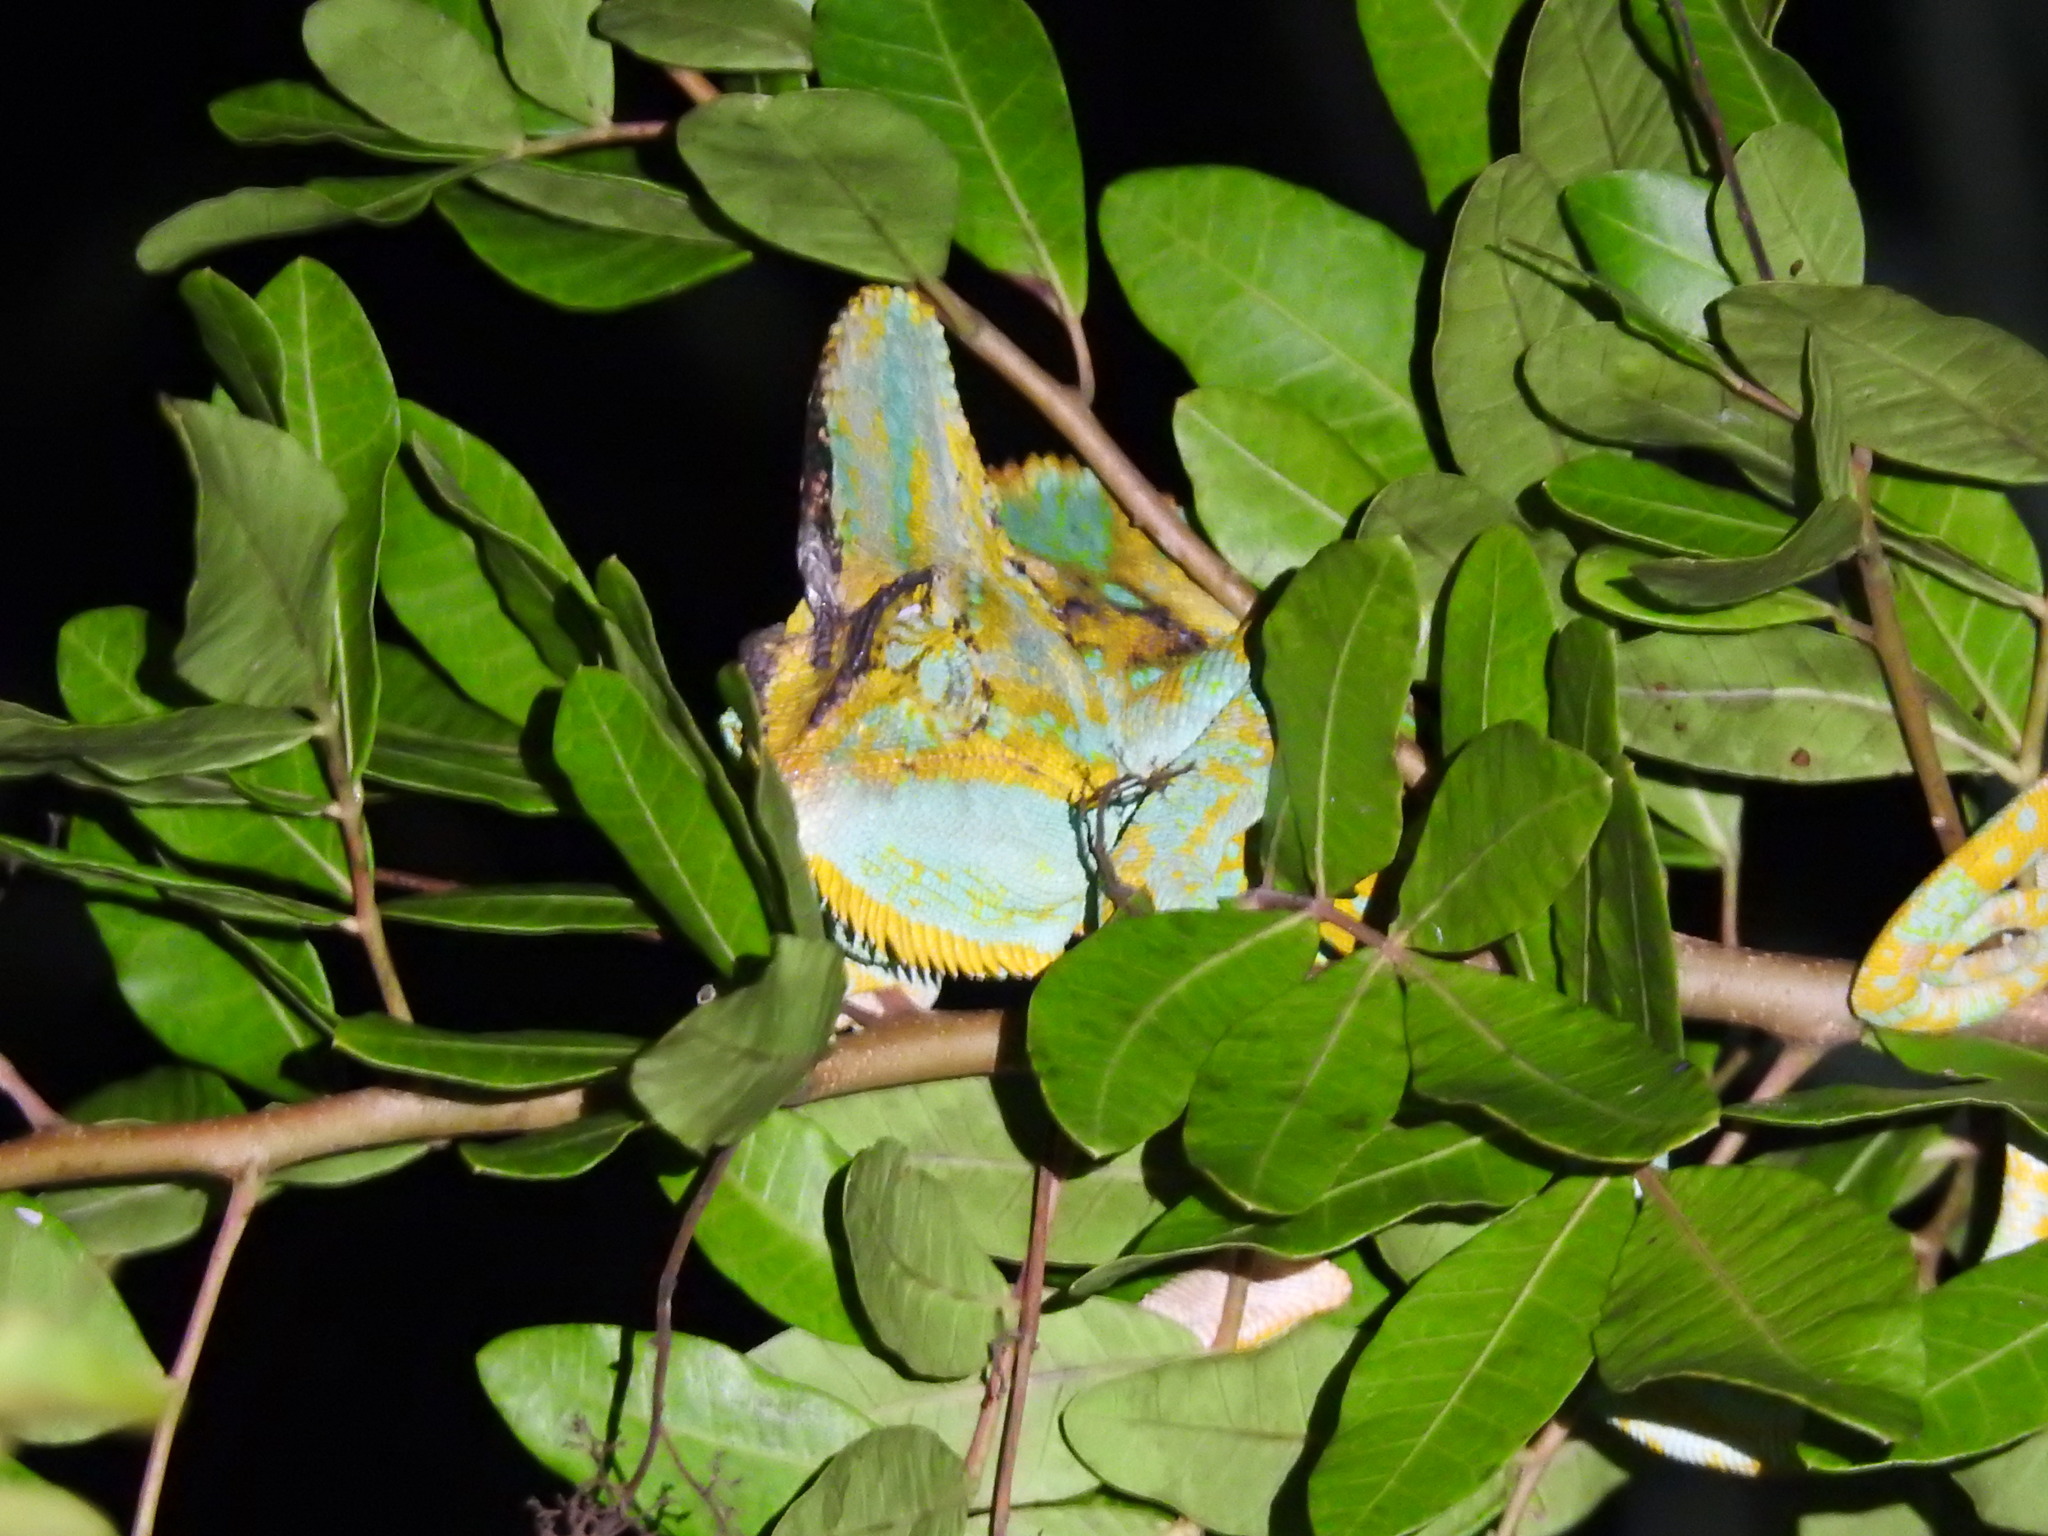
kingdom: Animalia
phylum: Chordata
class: Squamata
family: Chamaeleonidae
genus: Chamaeleo
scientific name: Chamaeleo calyptratus
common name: Veiled chameleon
